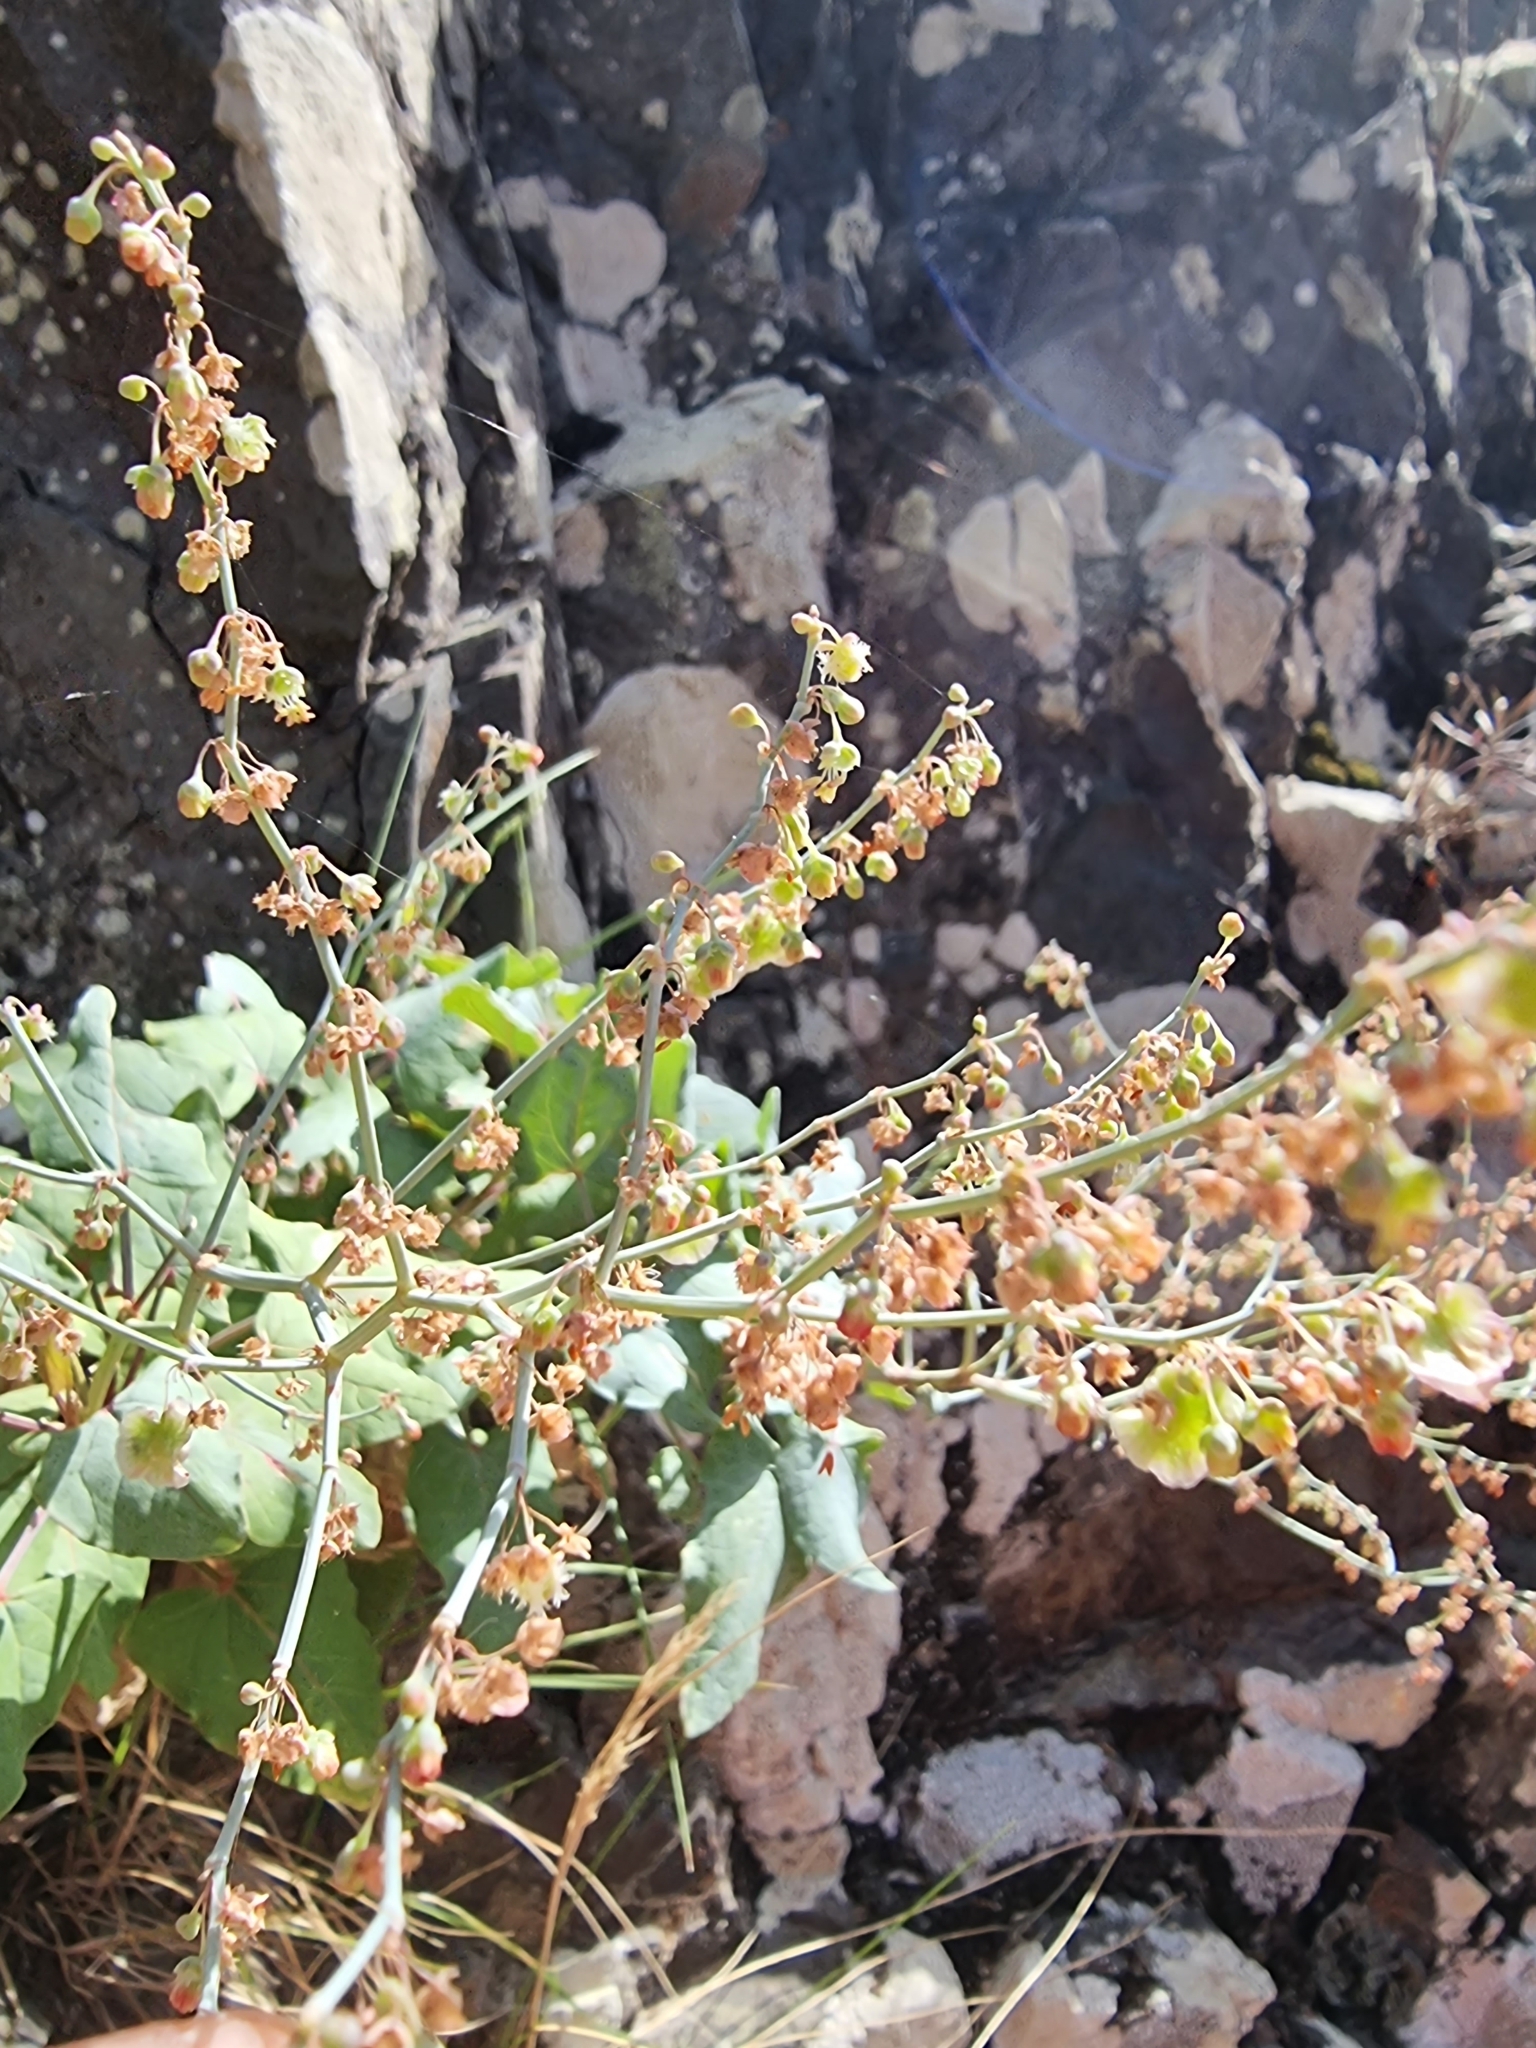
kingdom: Plantae
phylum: Tracheophyta
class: Magnoliopsida
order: Caryophyllales
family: Polygonaceae
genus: Rumex
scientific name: Rumex maderensis
